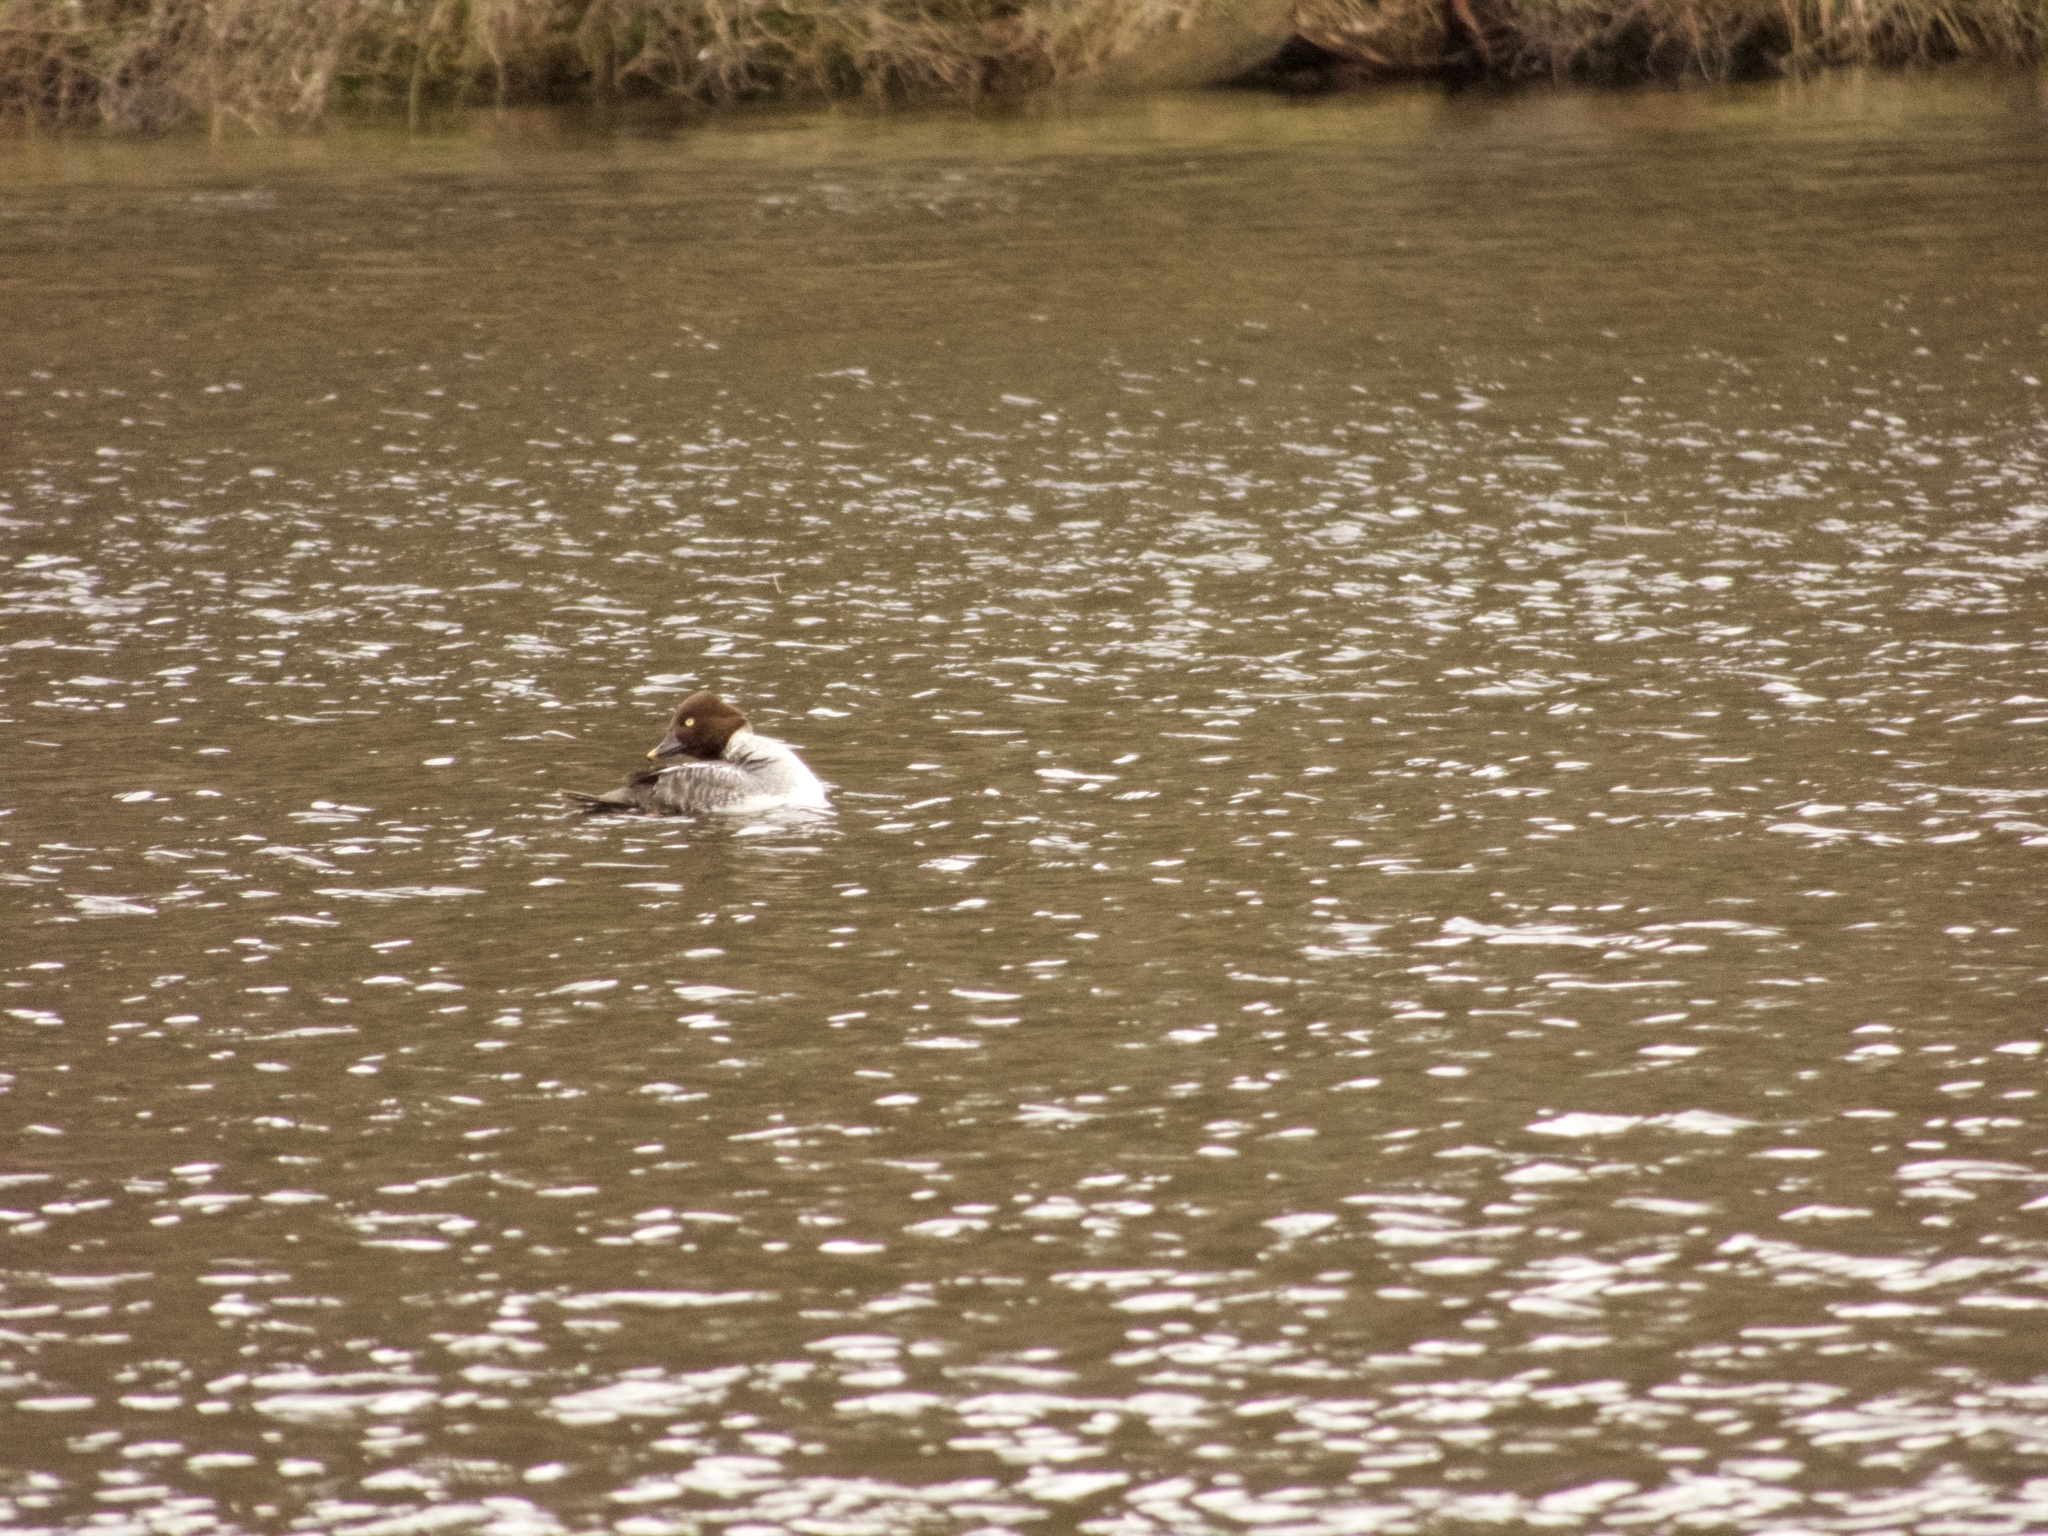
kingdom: Animalia
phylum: Chordata
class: Aves
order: Anseriformes
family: Anatidae
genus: Bucephala
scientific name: Bucephala clangula
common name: Common goldeneye
